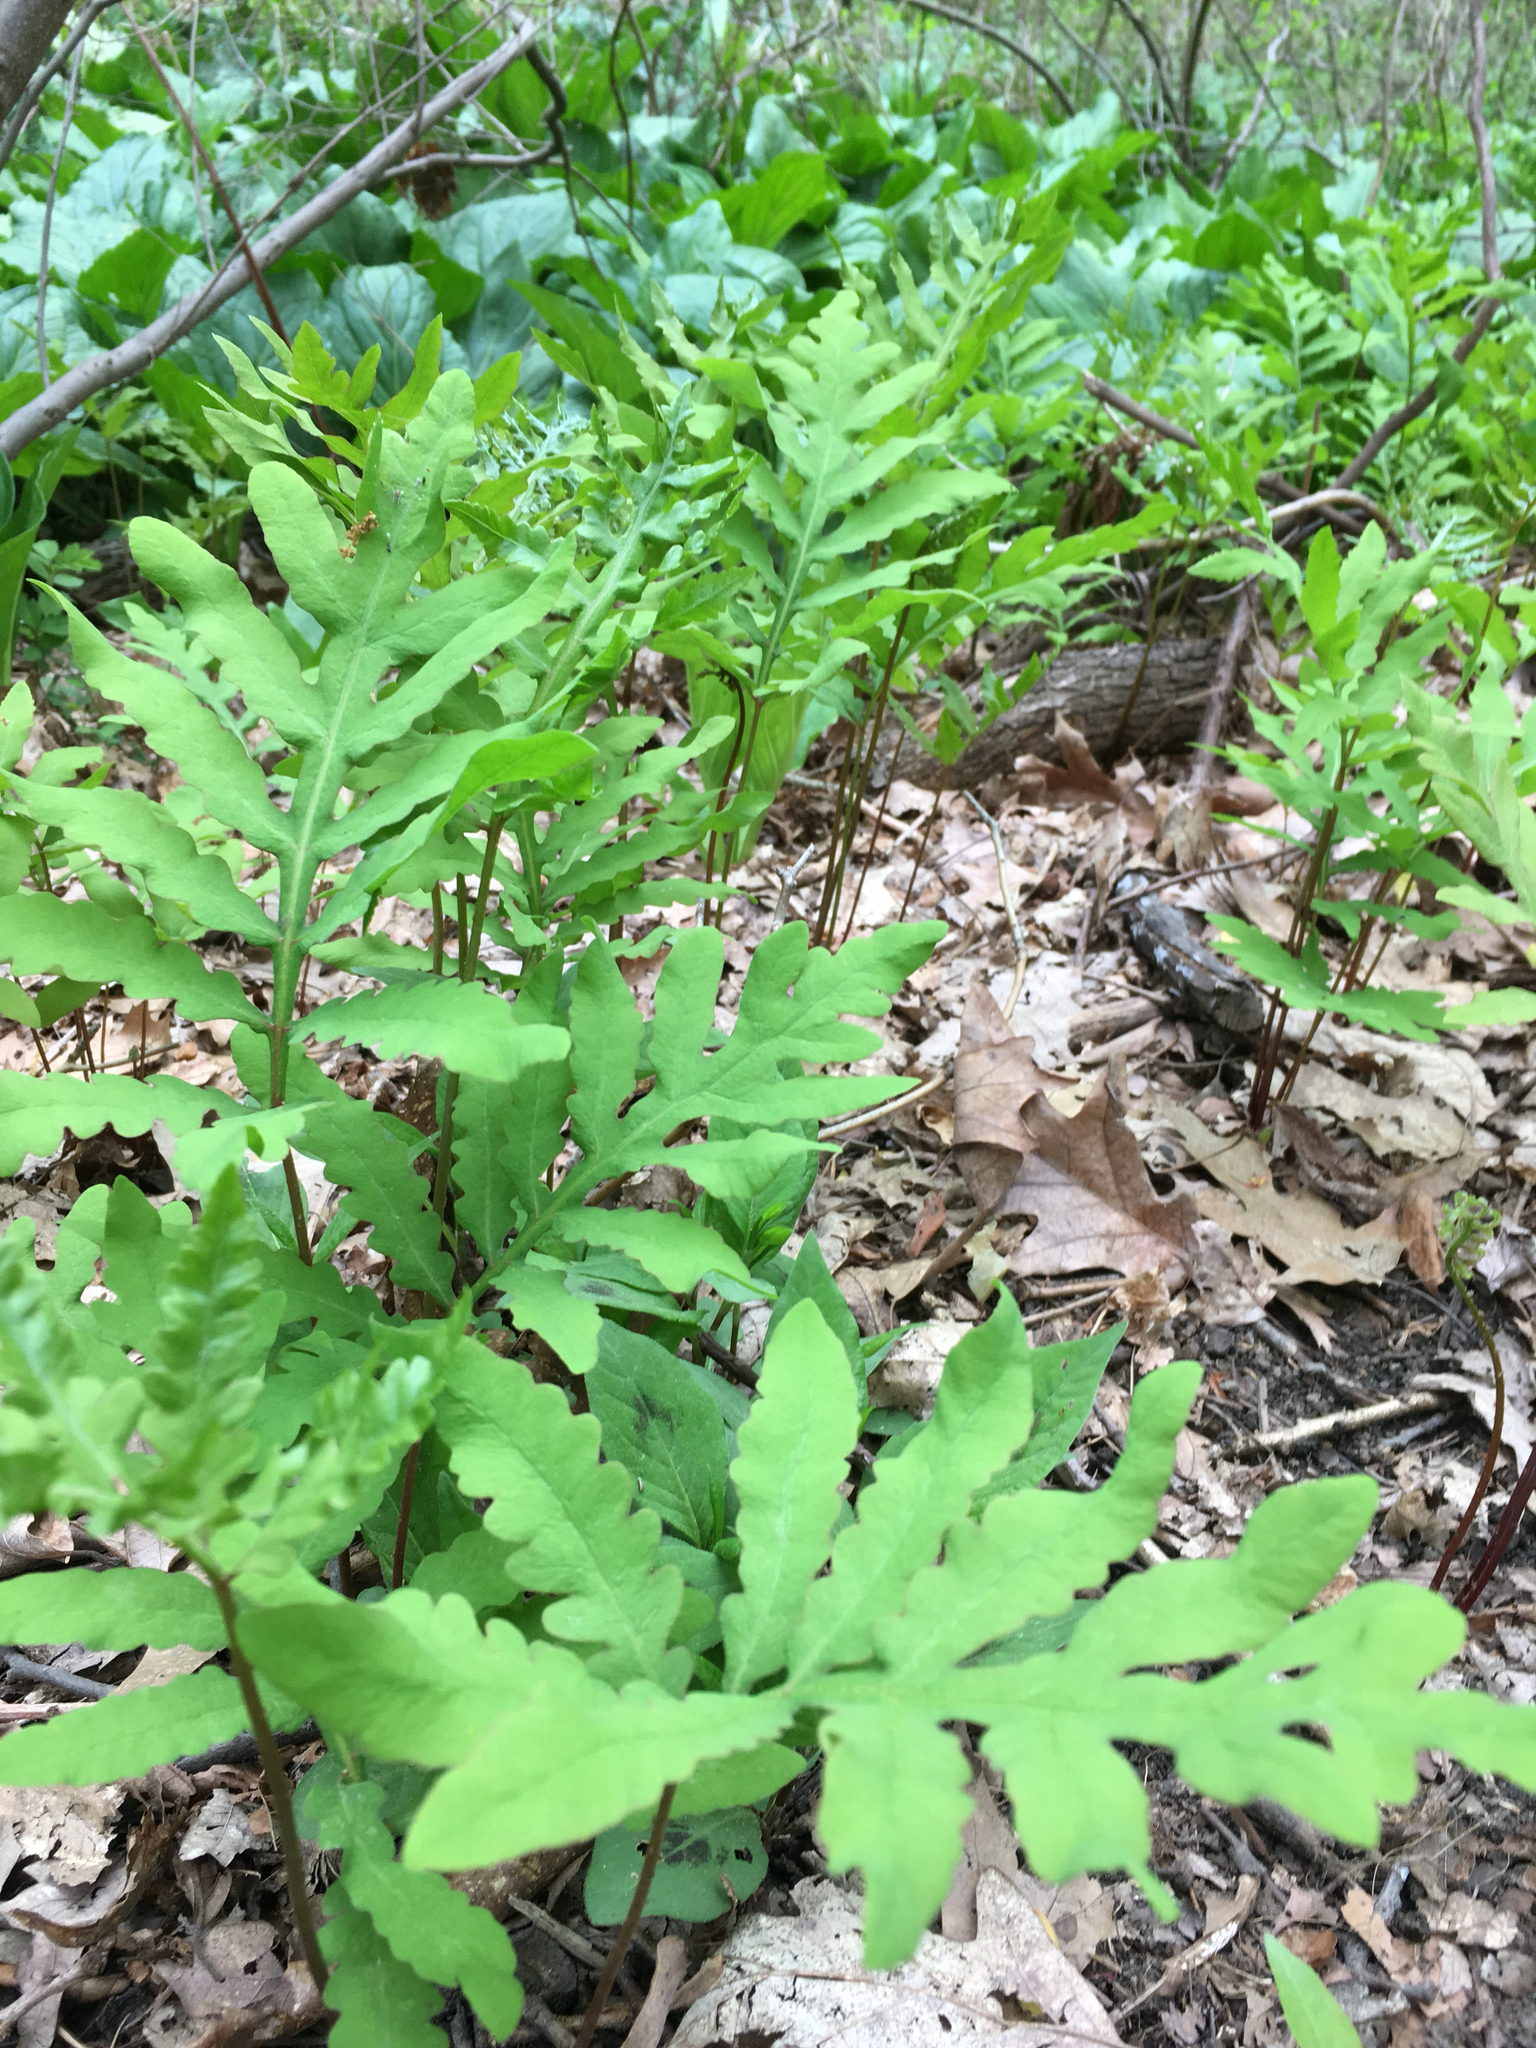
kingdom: Plantae
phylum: Tracheophyta
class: Polypodiopsida
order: Polypodiales
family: Onocleaceae
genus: Onoclea
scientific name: Onoclea sensibilis
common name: Sensitive fern
